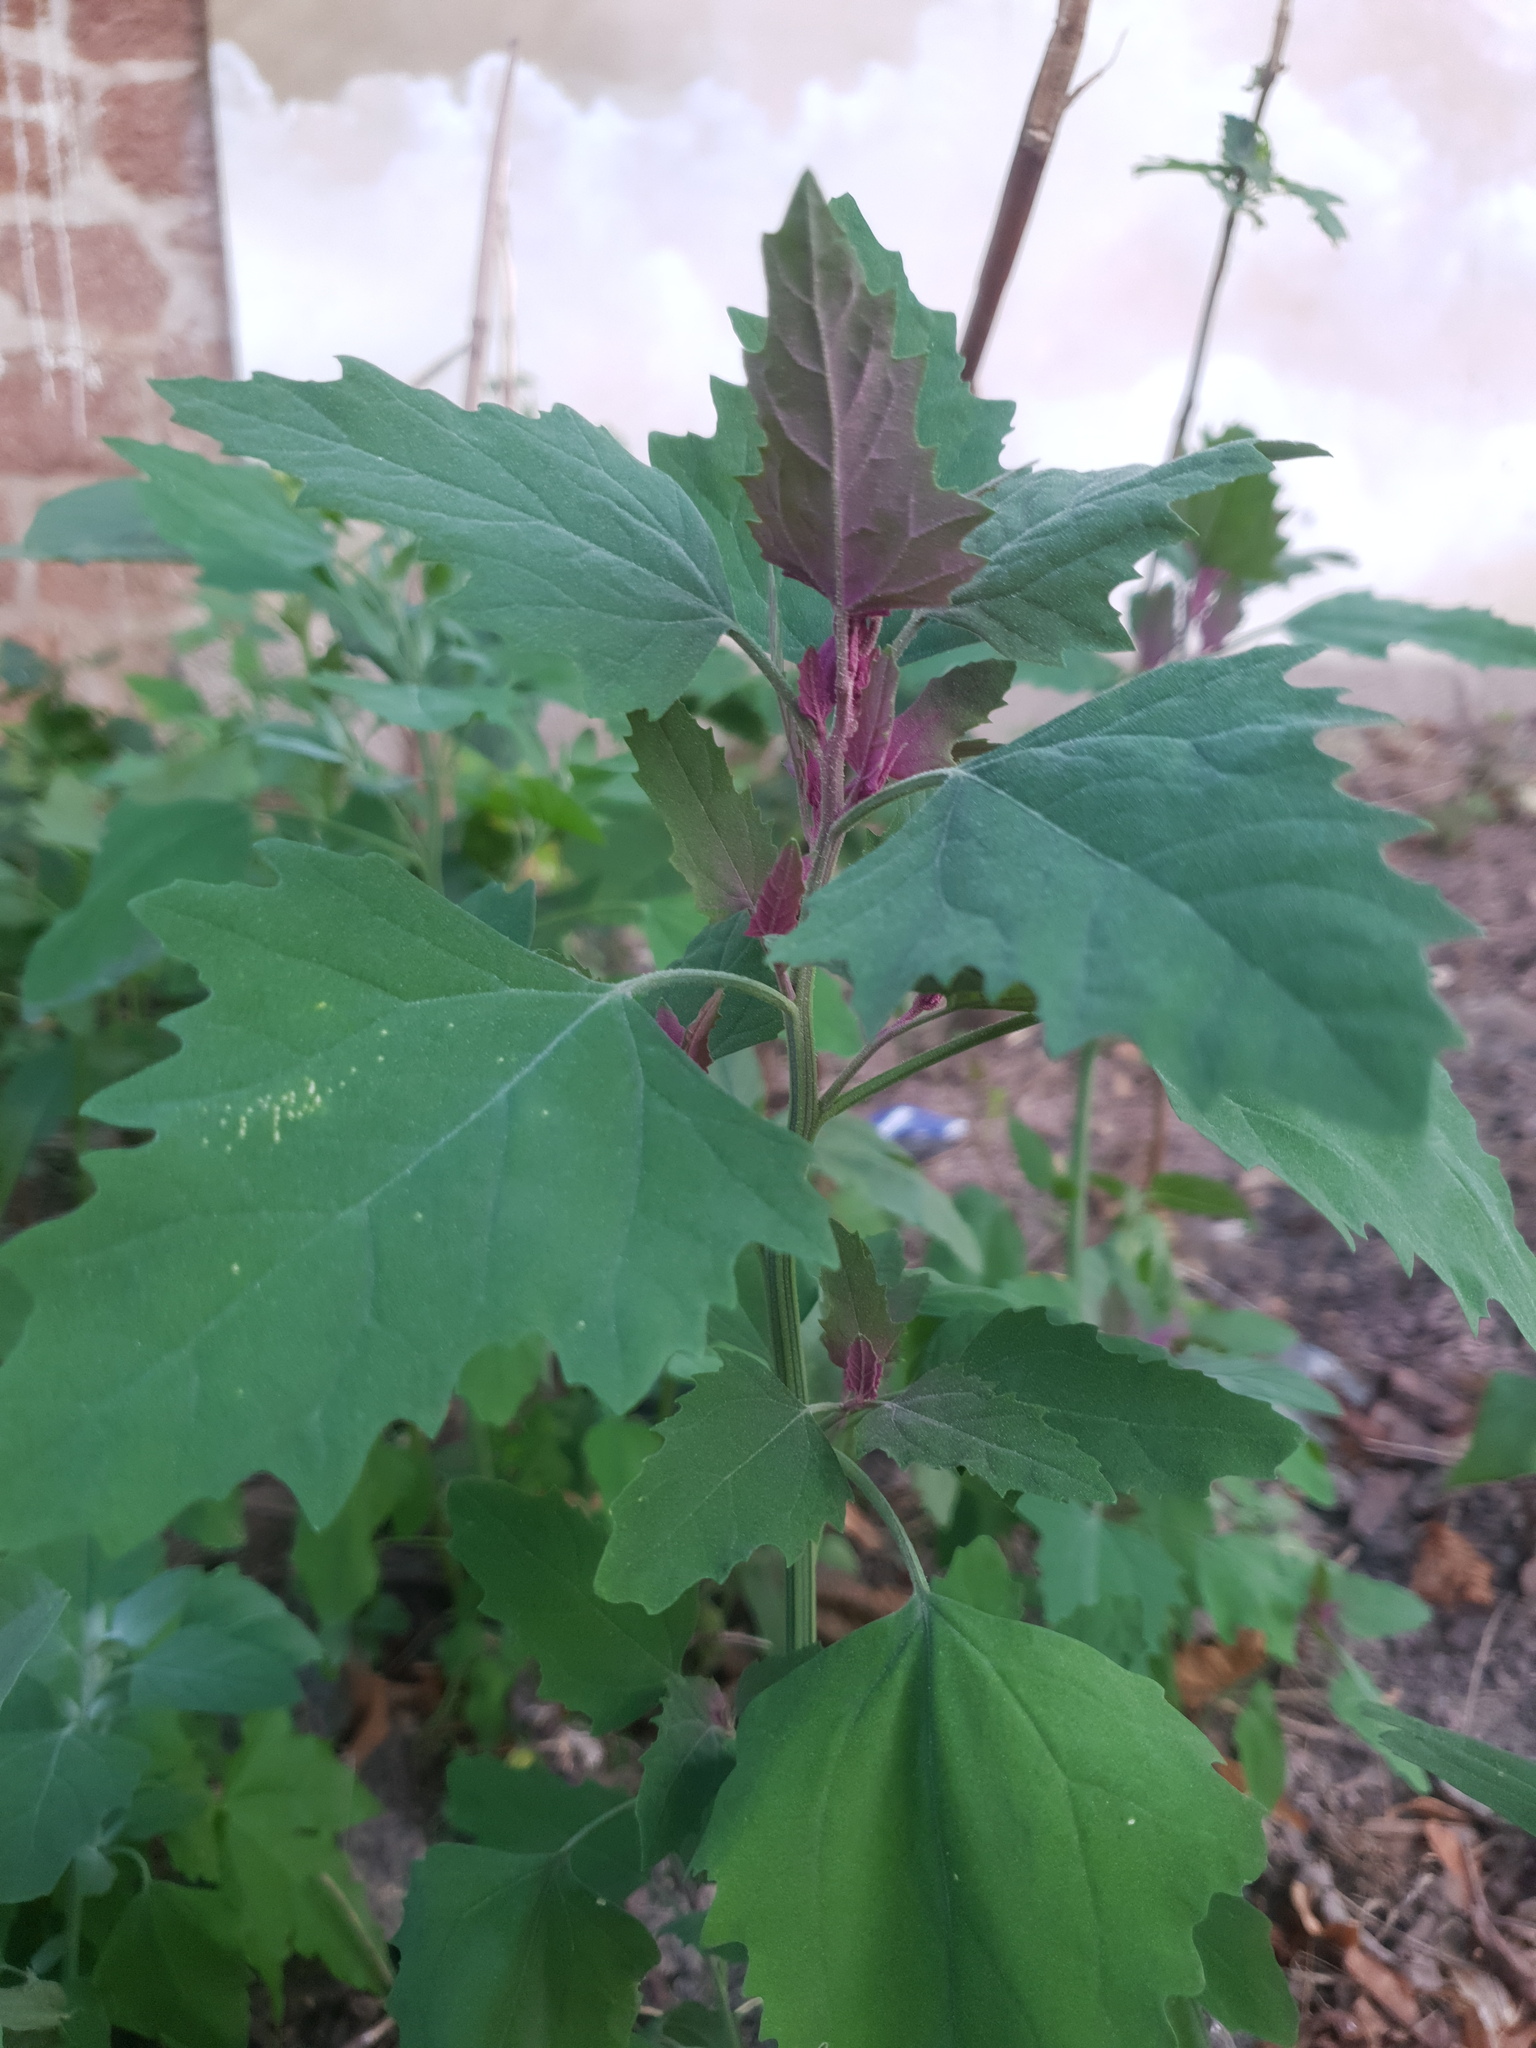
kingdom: Plantae
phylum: Tracheophyta
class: Magnoliopsida
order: Caryophyllales
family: Amaranthaceae
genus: Chenopodium
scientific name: Chenopodium giganteum
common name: Magentaspreen
